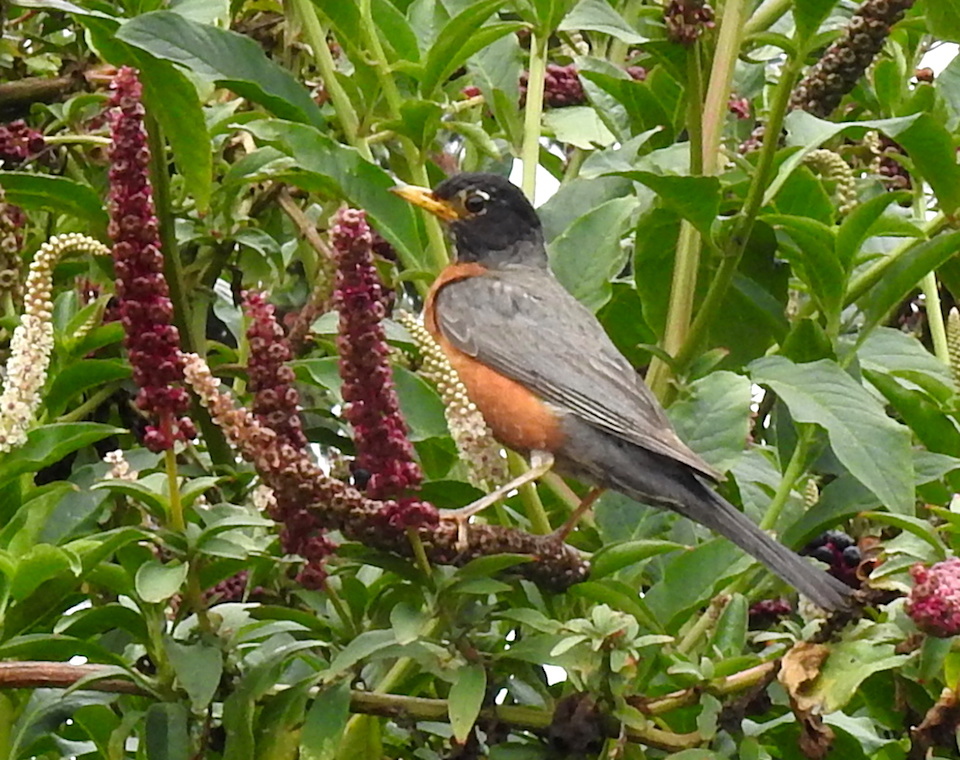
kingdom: Animalia
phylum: Chordata
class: Aves
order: Passeriformes
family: Turdidae
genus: Turdus
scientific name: Turdus migratorius
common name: American robin
